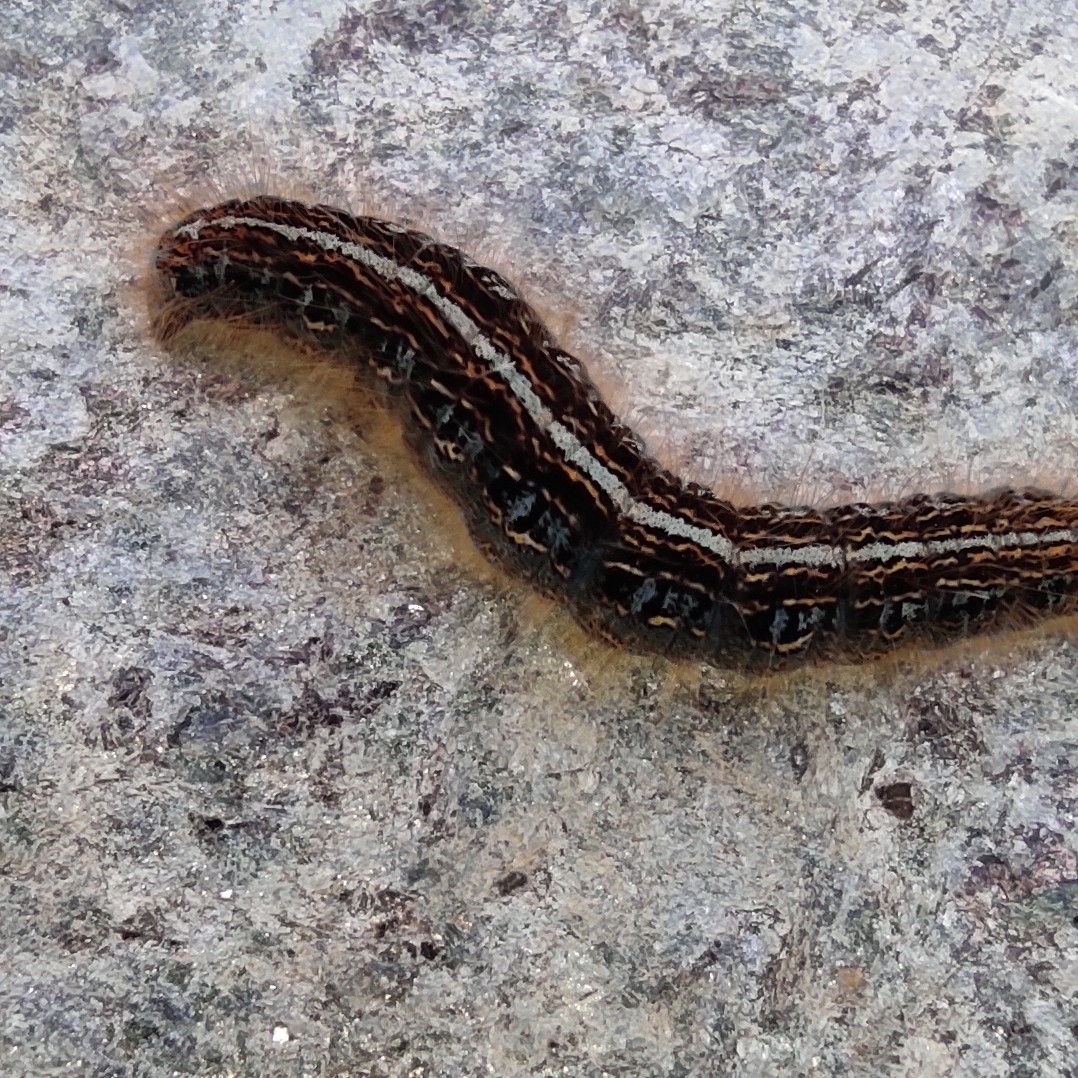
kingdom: Animalia
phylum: Arthropoda
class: Insecta
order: Lepidoptera
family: Lasiocampidae
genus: Malacosoma
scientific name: Malacosoma alpicola
